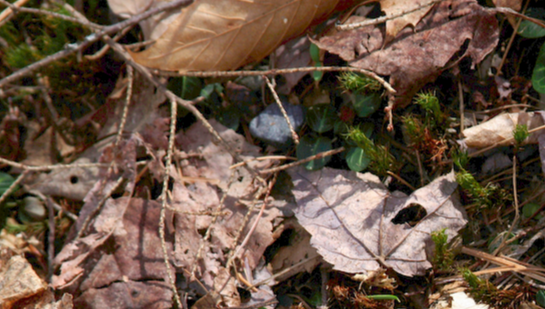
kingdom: Plantae
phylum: Tracheophyta
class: Magnoliopsida
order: Gentianales
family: Rubiaceae
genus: Mitchella
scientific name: Mitchella repens
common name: Partridge-berry
